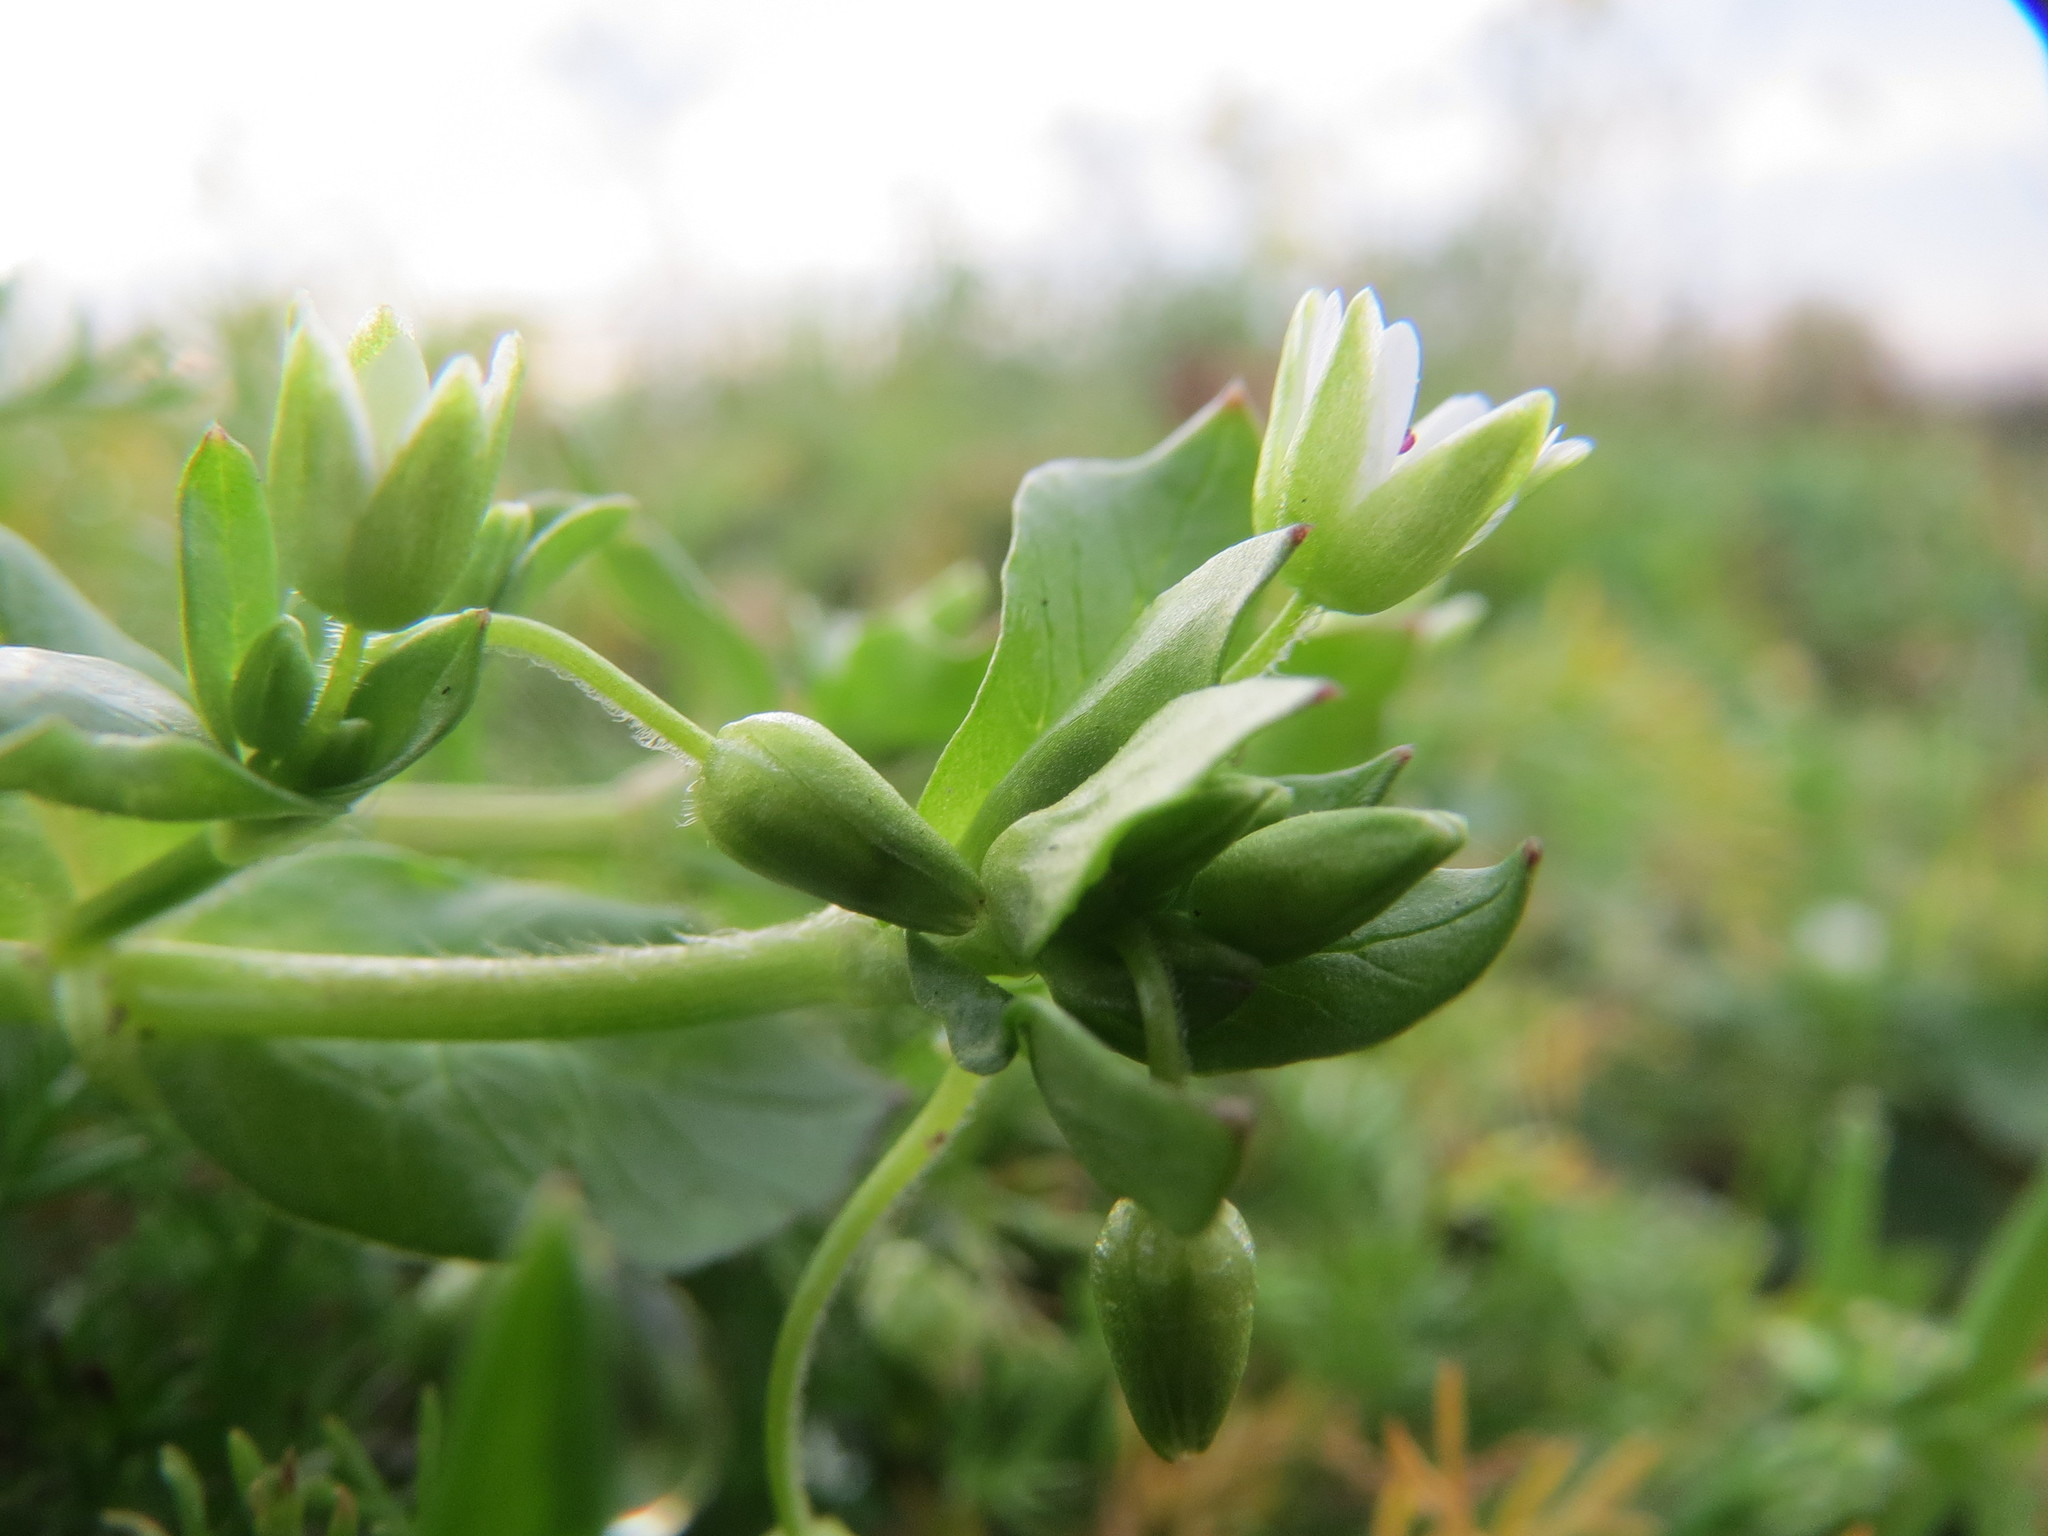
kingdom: Plantae
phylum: Tracheophyta
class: Magnoliopsida
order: Caryophyllales
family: Caryophyllaceae
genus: Stellaria
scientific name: Stellaria media
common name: Common chickweed
